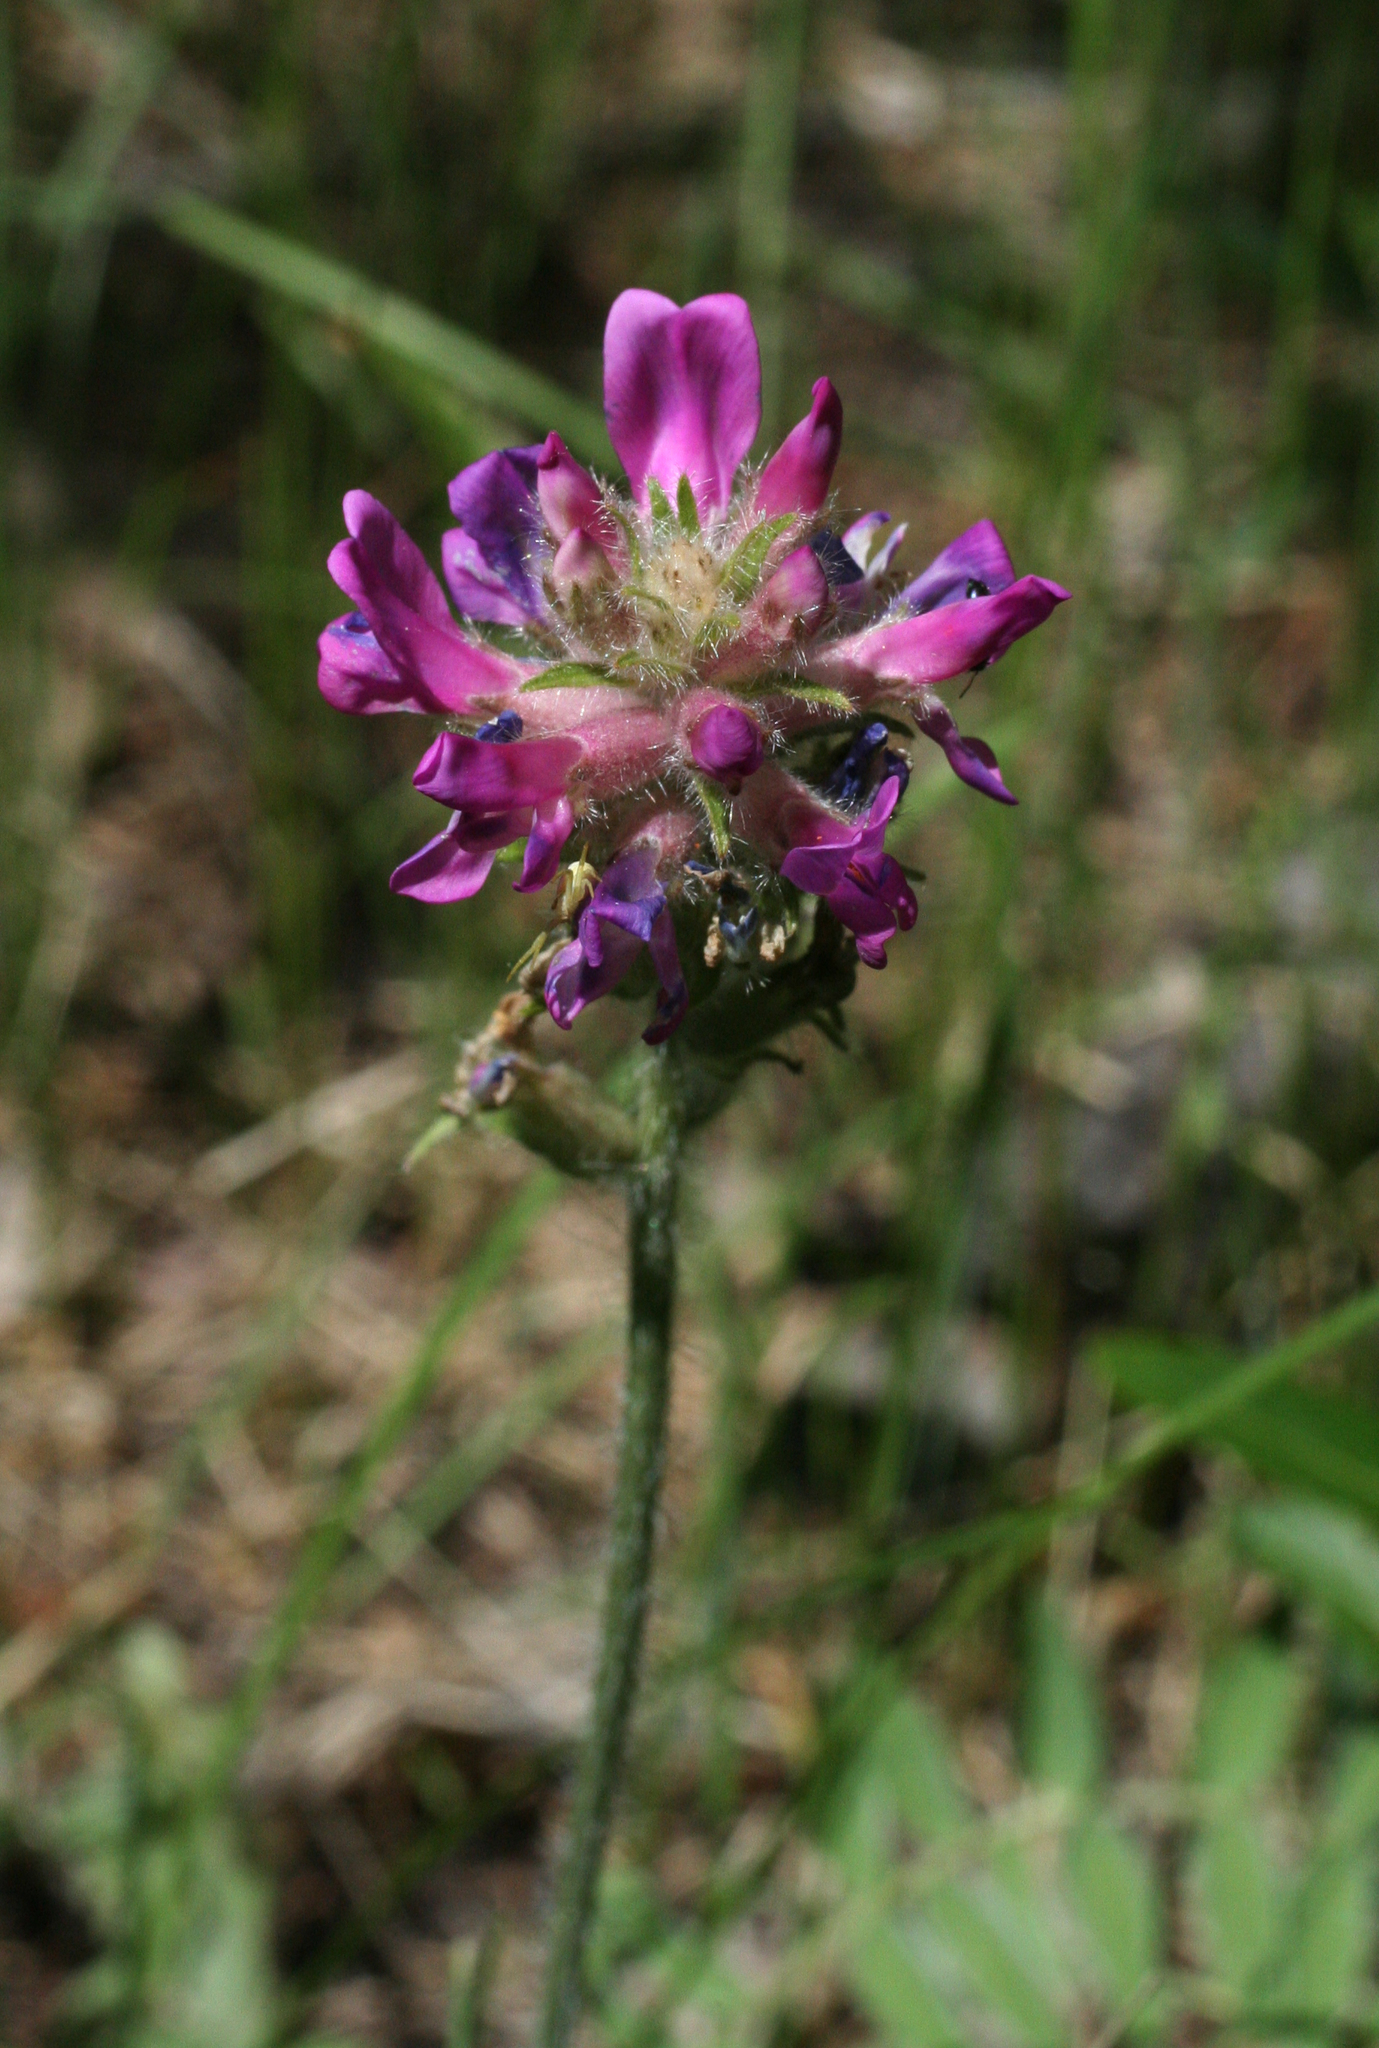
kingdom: Plantae
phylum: Tracheophyta
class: Magnoliopsida
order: Fabales
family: Fabaceae
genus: Oxytropis
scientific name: Oxytropis campanulata
